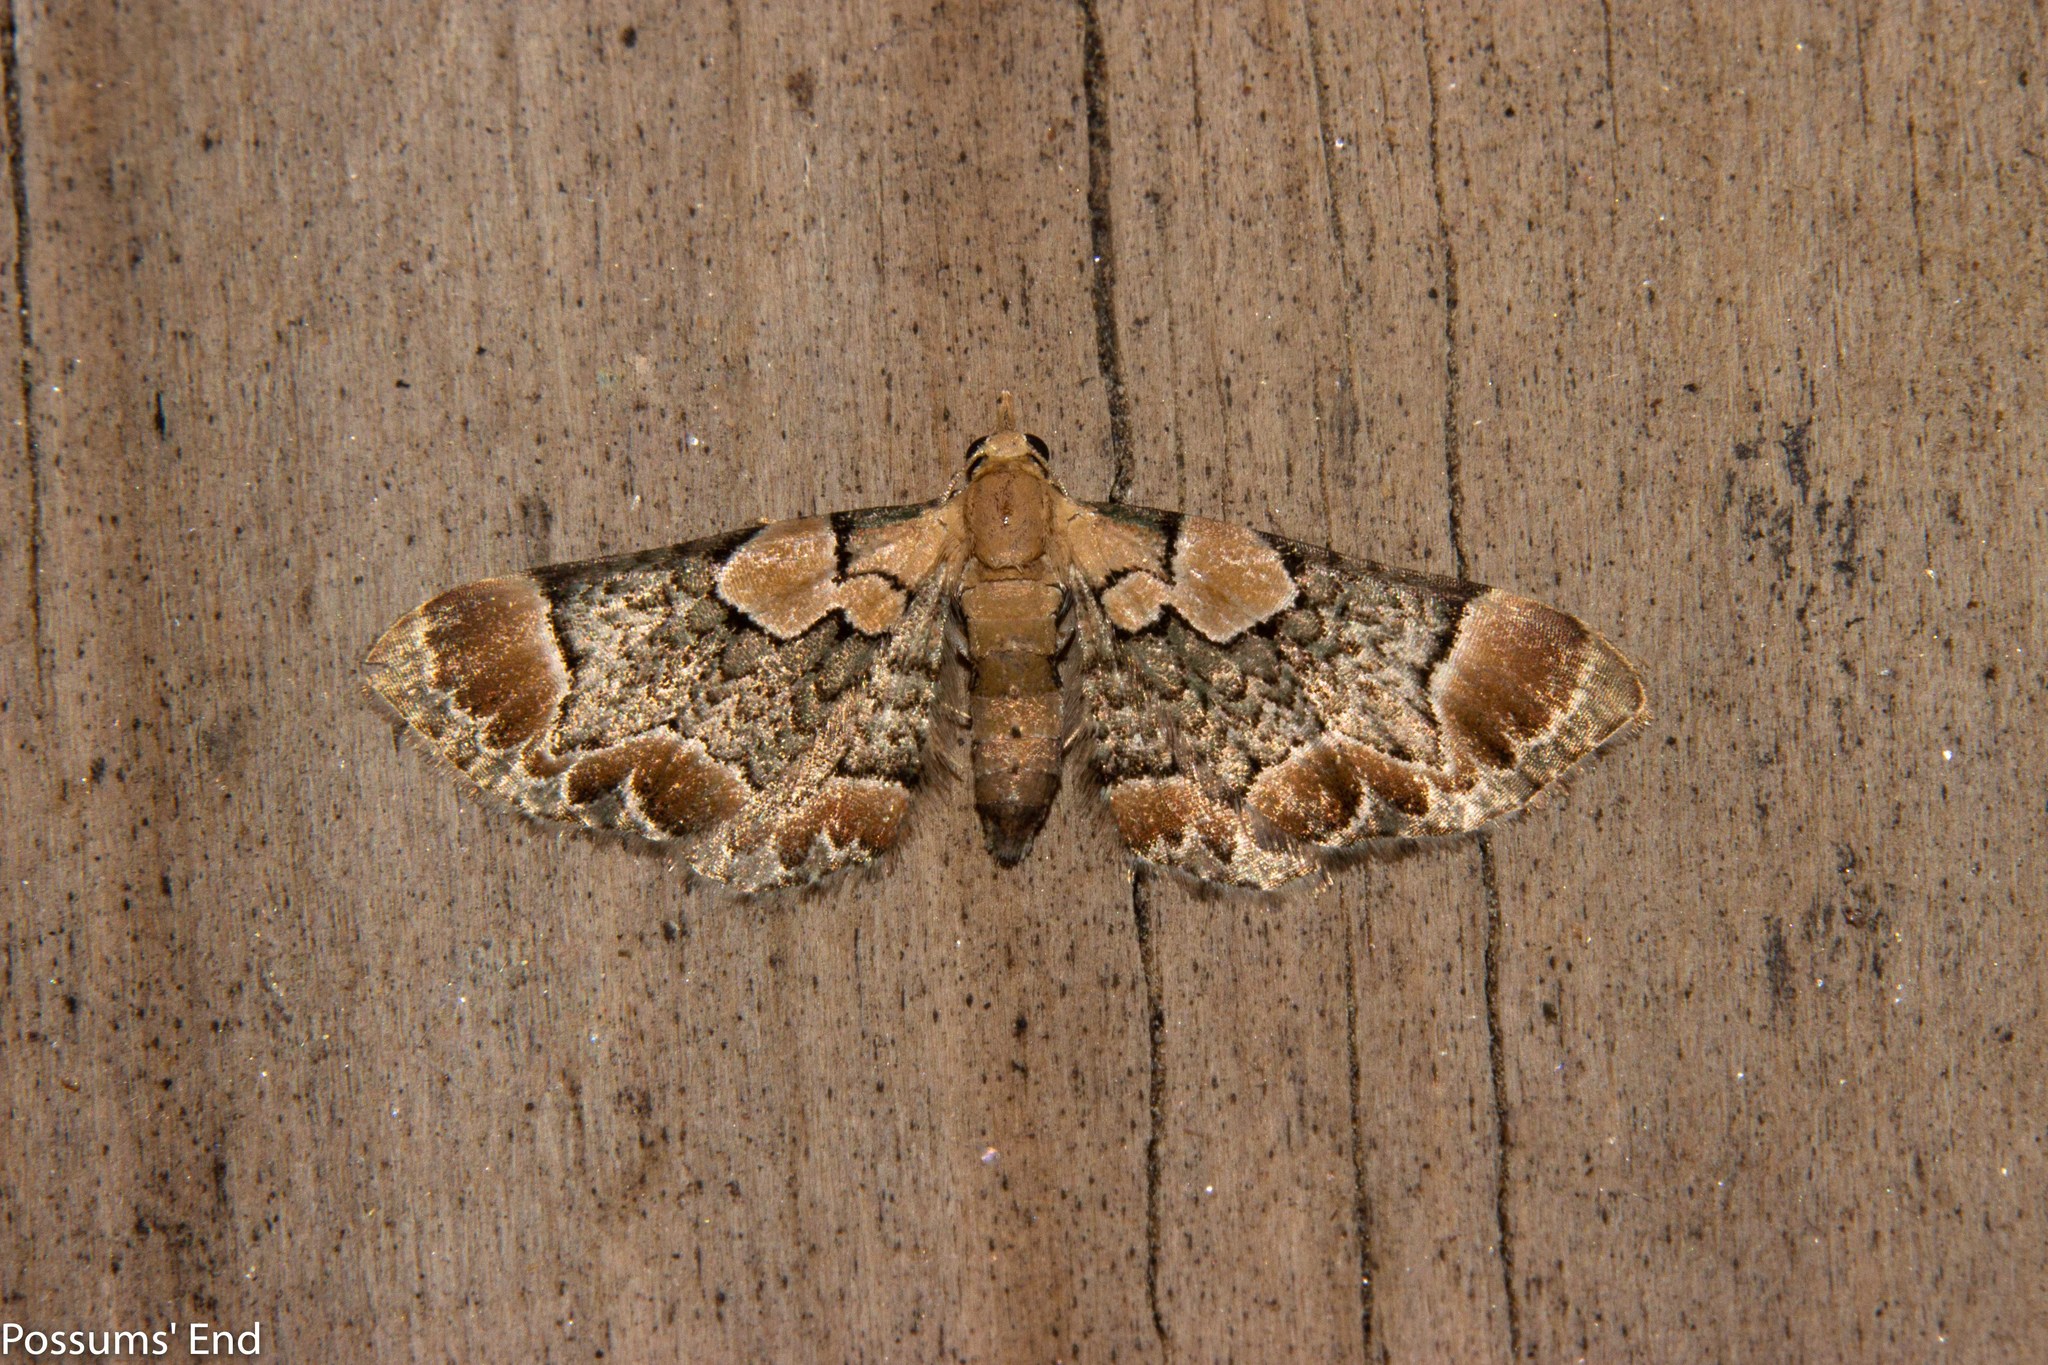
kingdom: Animalia
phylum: Arthropoda
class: Insecta
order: Lepidoptera
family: Geometridae
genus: Chloroclystis
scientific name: Chloroclystis
